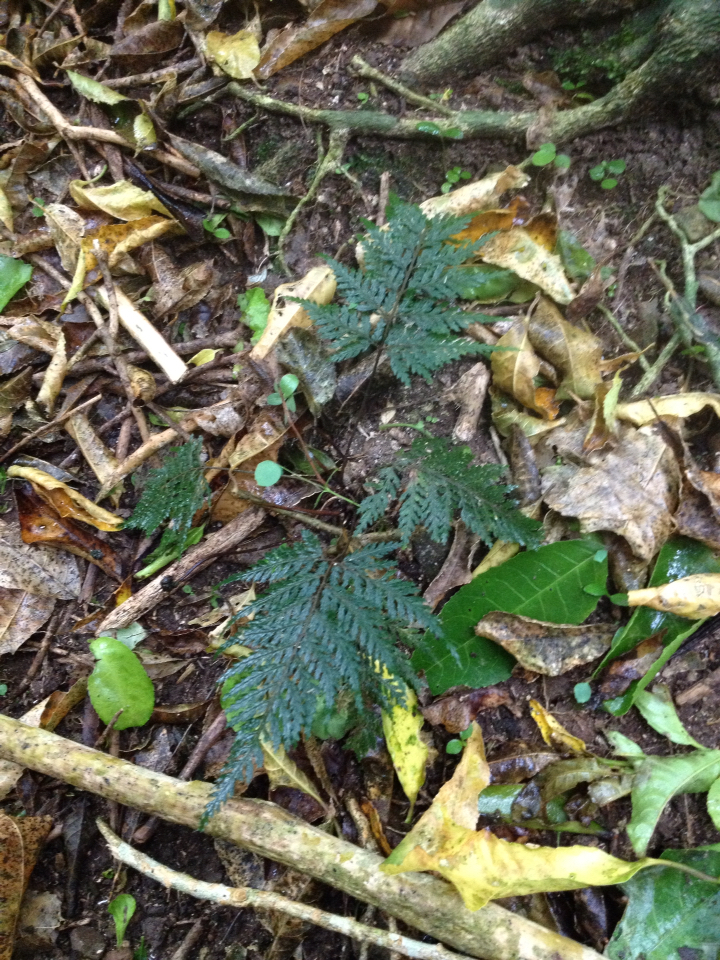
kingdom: Plantae
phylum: Tracheophyta
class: Polypodiopsida
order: Polypodiales
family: Dryopteridaceae
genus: Parapolystichum
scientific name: Parapolystichum glabellum
